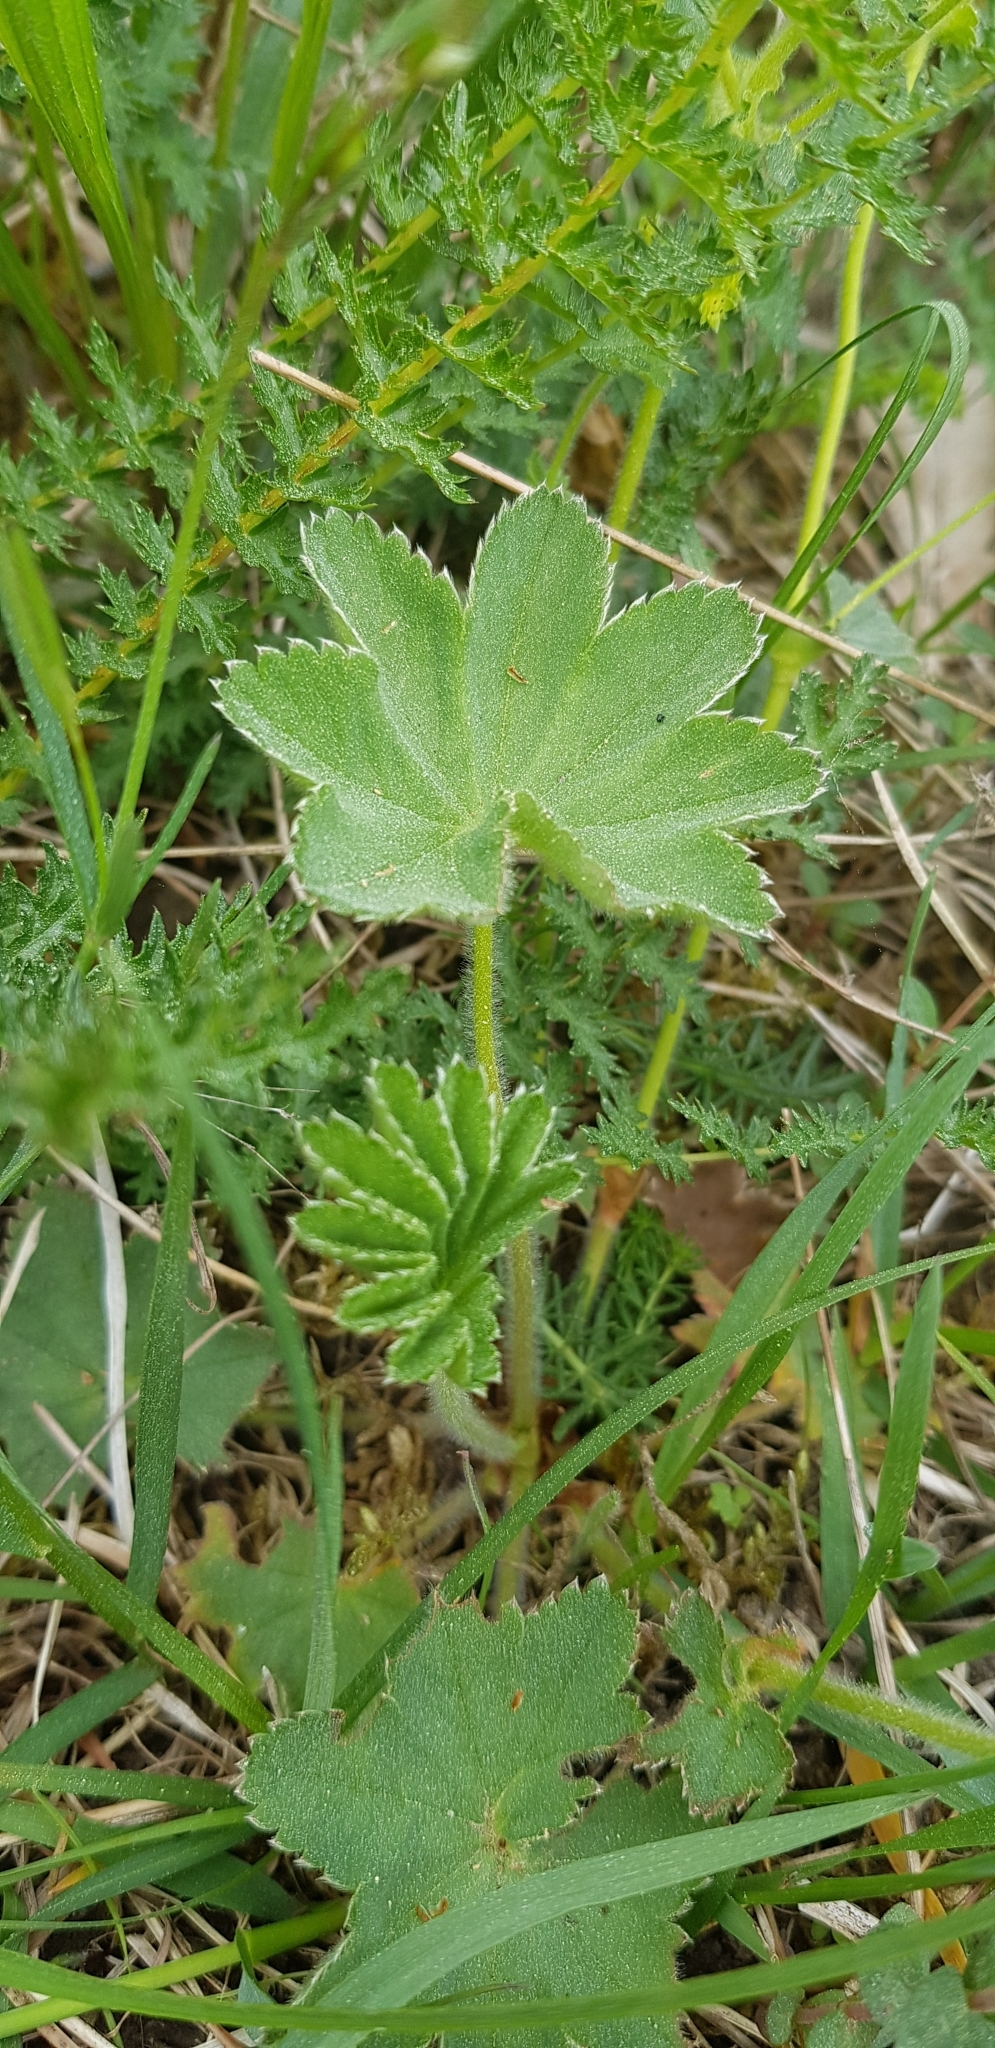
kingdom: Plantae
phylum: Tracheophyta
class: Magnoliopsida
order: Rosales
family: Rosaceae
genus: Alchemilla
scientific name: Alchemilla vulgaris
